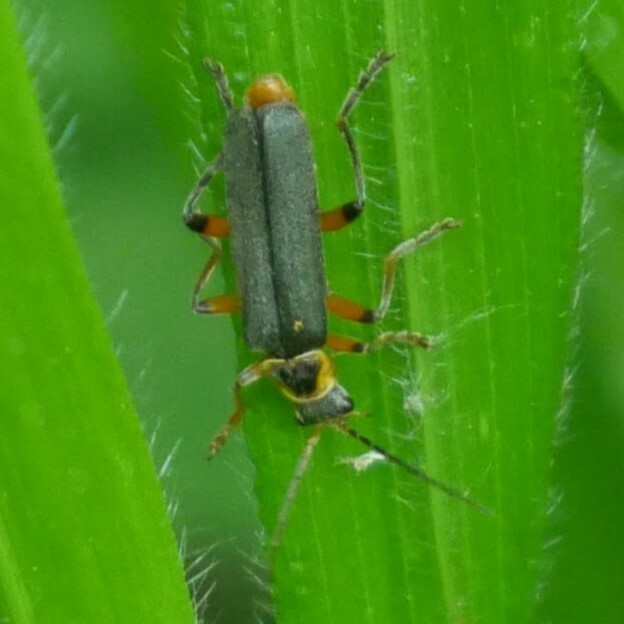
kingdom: Animalia
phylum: Arthropoda
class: Insecta
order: Coleoptera
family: Cantharidae
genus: Cantharis
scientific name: Cantharis nigricans
